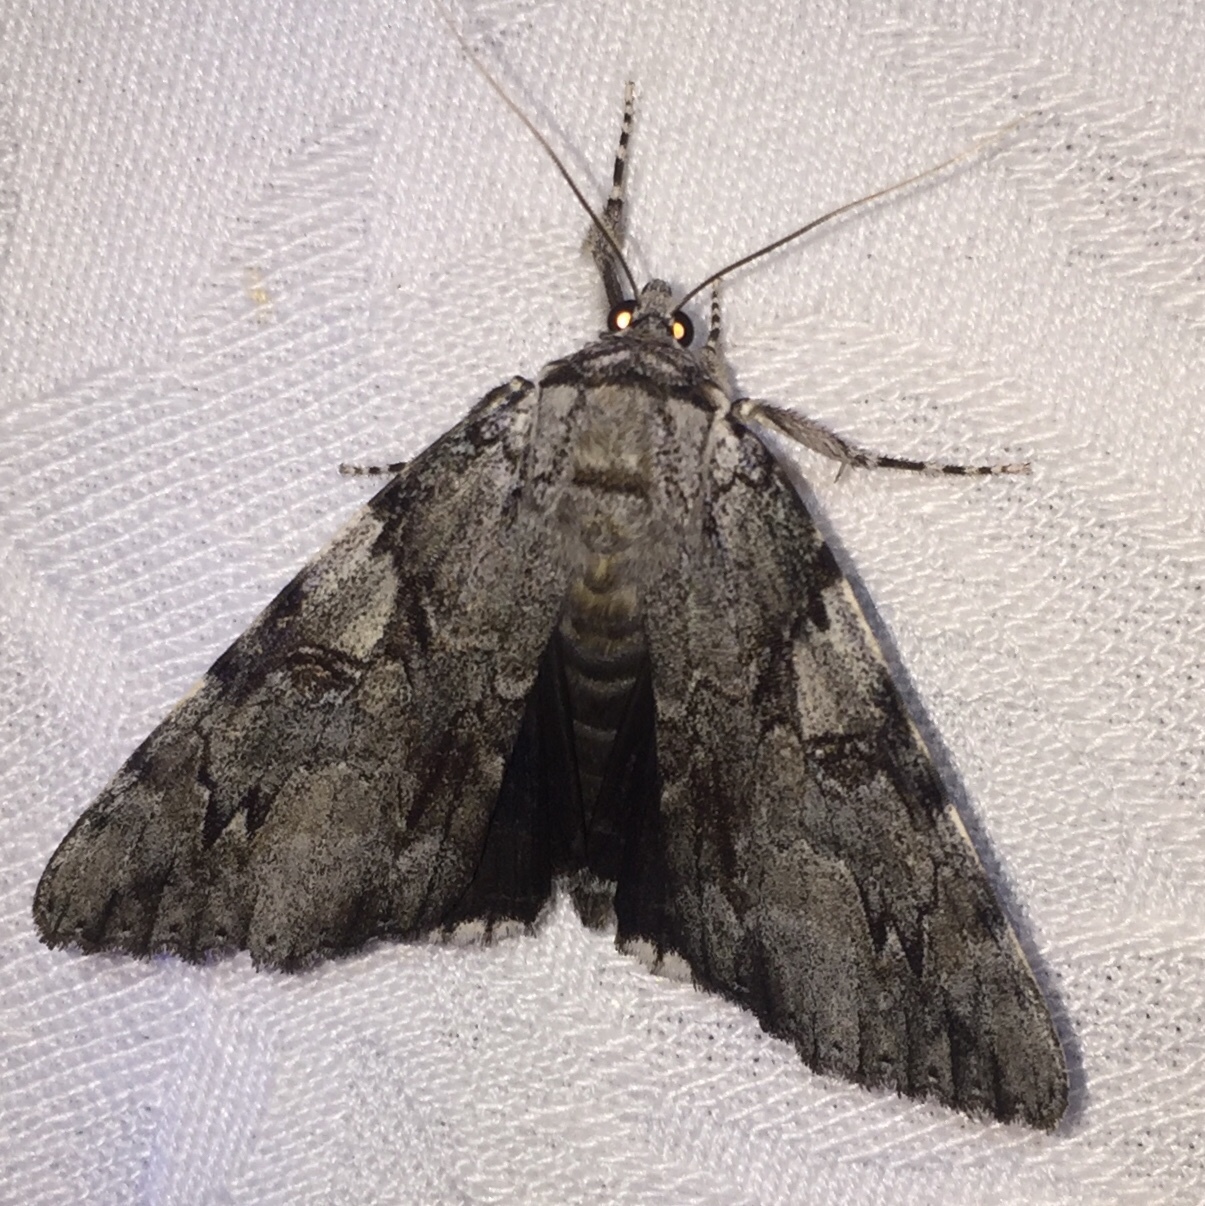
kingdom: Animalia
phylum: Arthropoda
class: Insecta
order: Lepidoptera
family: Erebidae
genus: Catocala
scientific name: Catocala dejecta
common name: Dejected underwing
